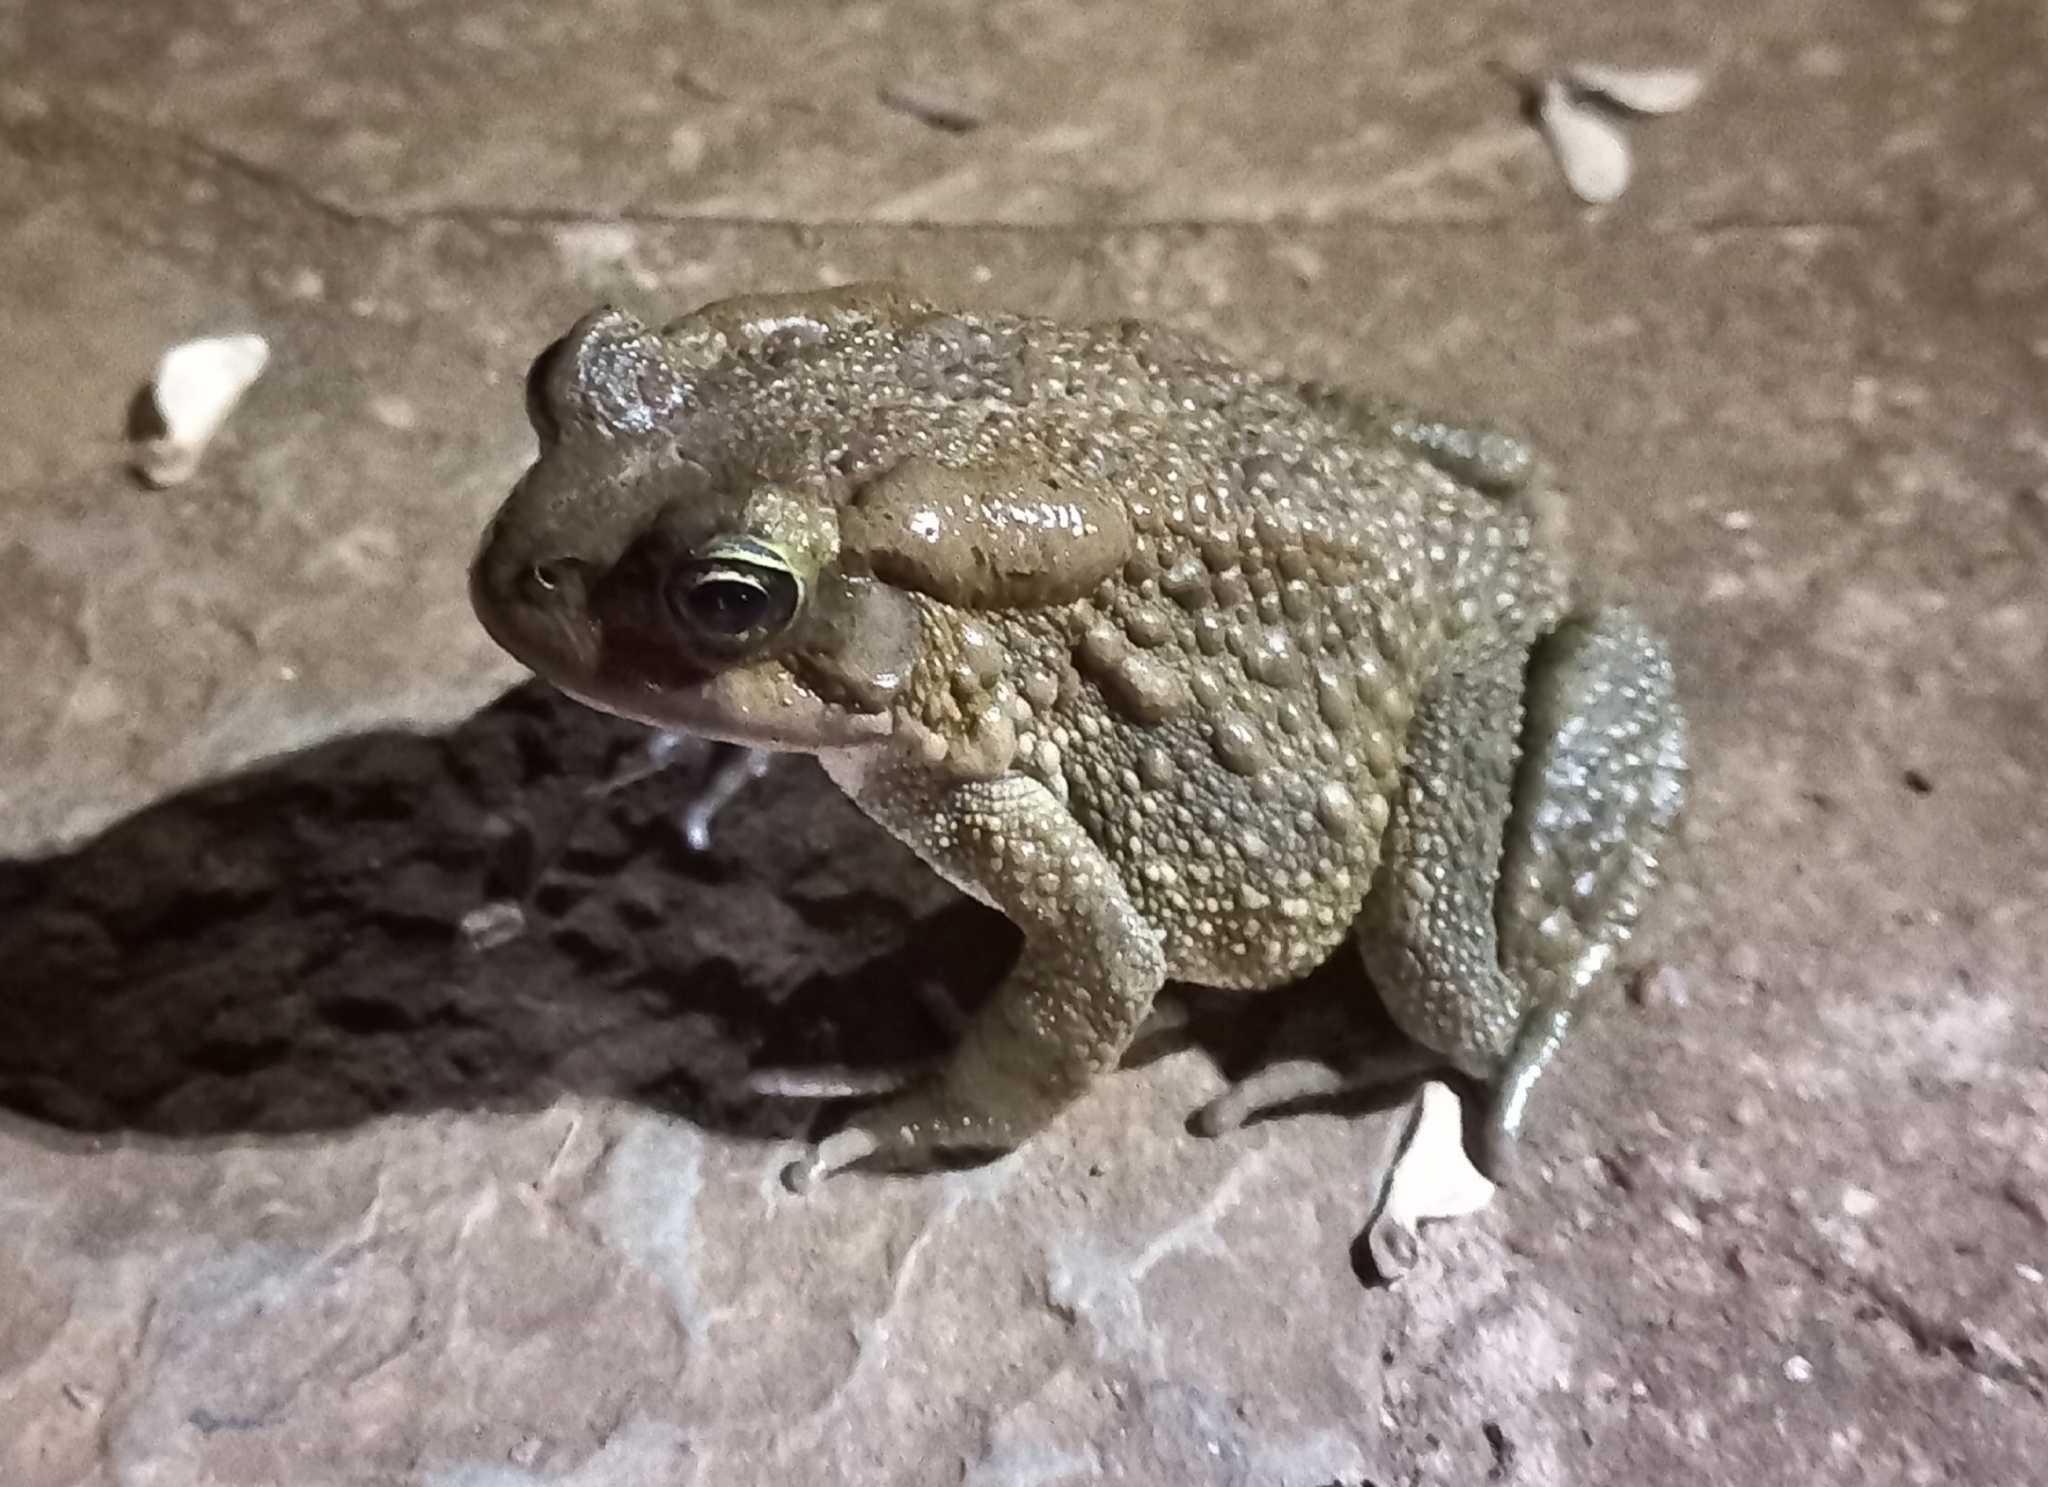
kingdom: Animalia
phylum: Chordata
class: Amphibia
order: Anura
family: Bufonidae
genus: Sclerophrys
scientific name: Sclerophrys capensis
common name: Ranger’s toad
